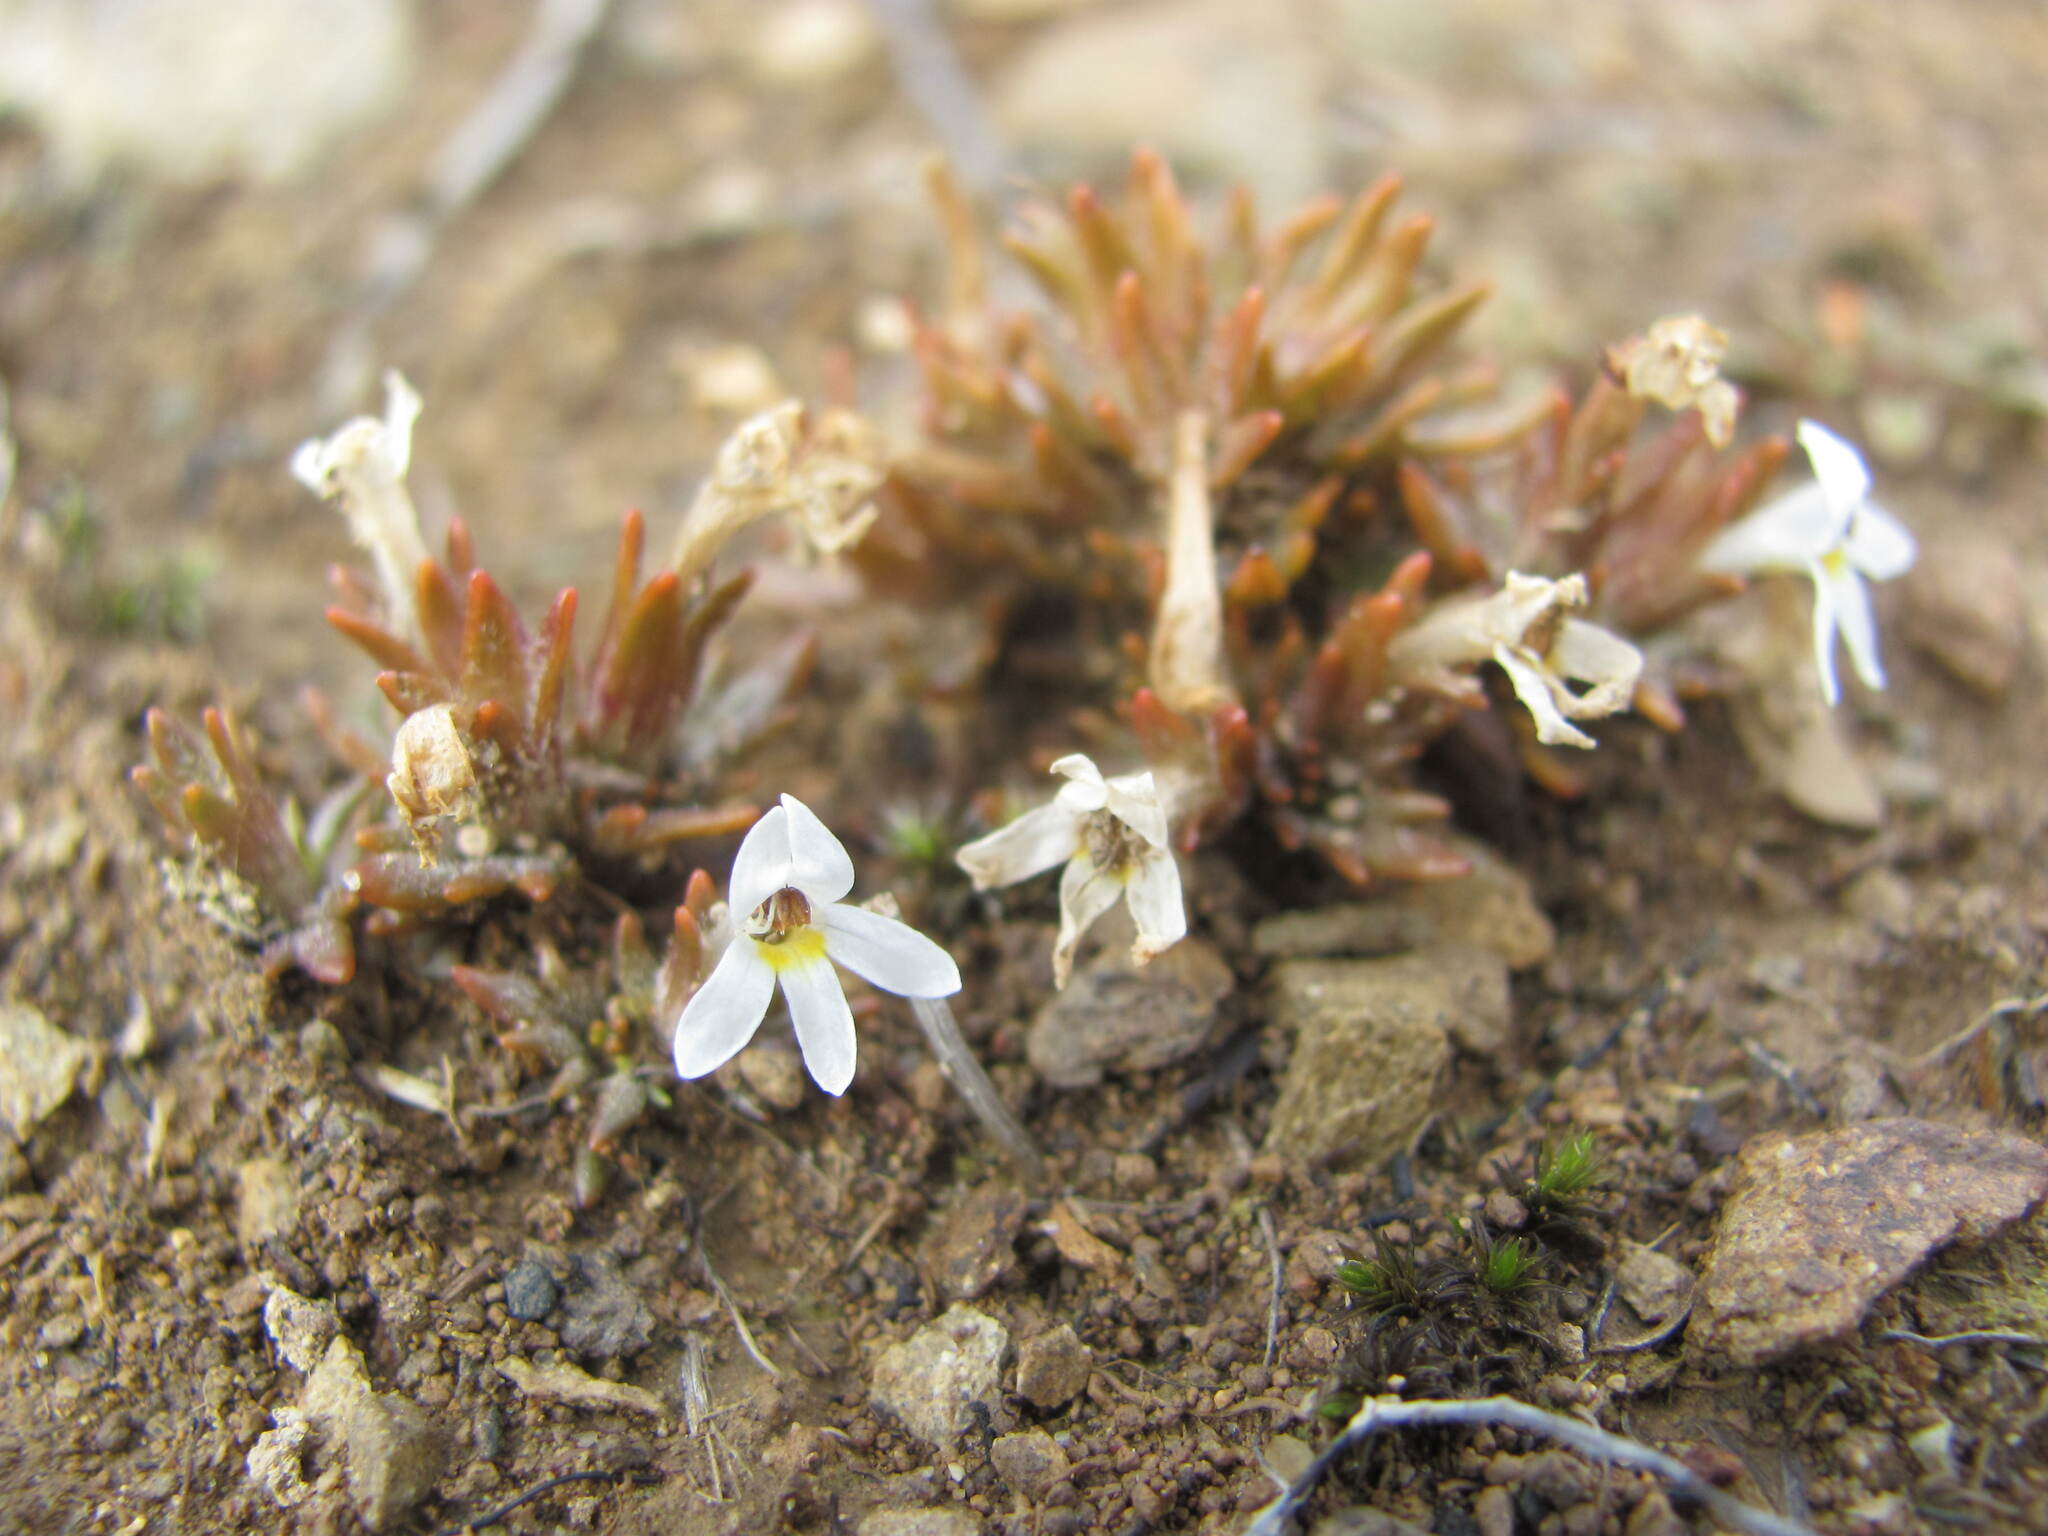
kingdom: Plantae
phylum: Tracheophyta
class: Magnoliopsida
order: Lamiales
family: Orobanchaceae
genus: Euphrasia
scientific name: Euphrasia zelandica
